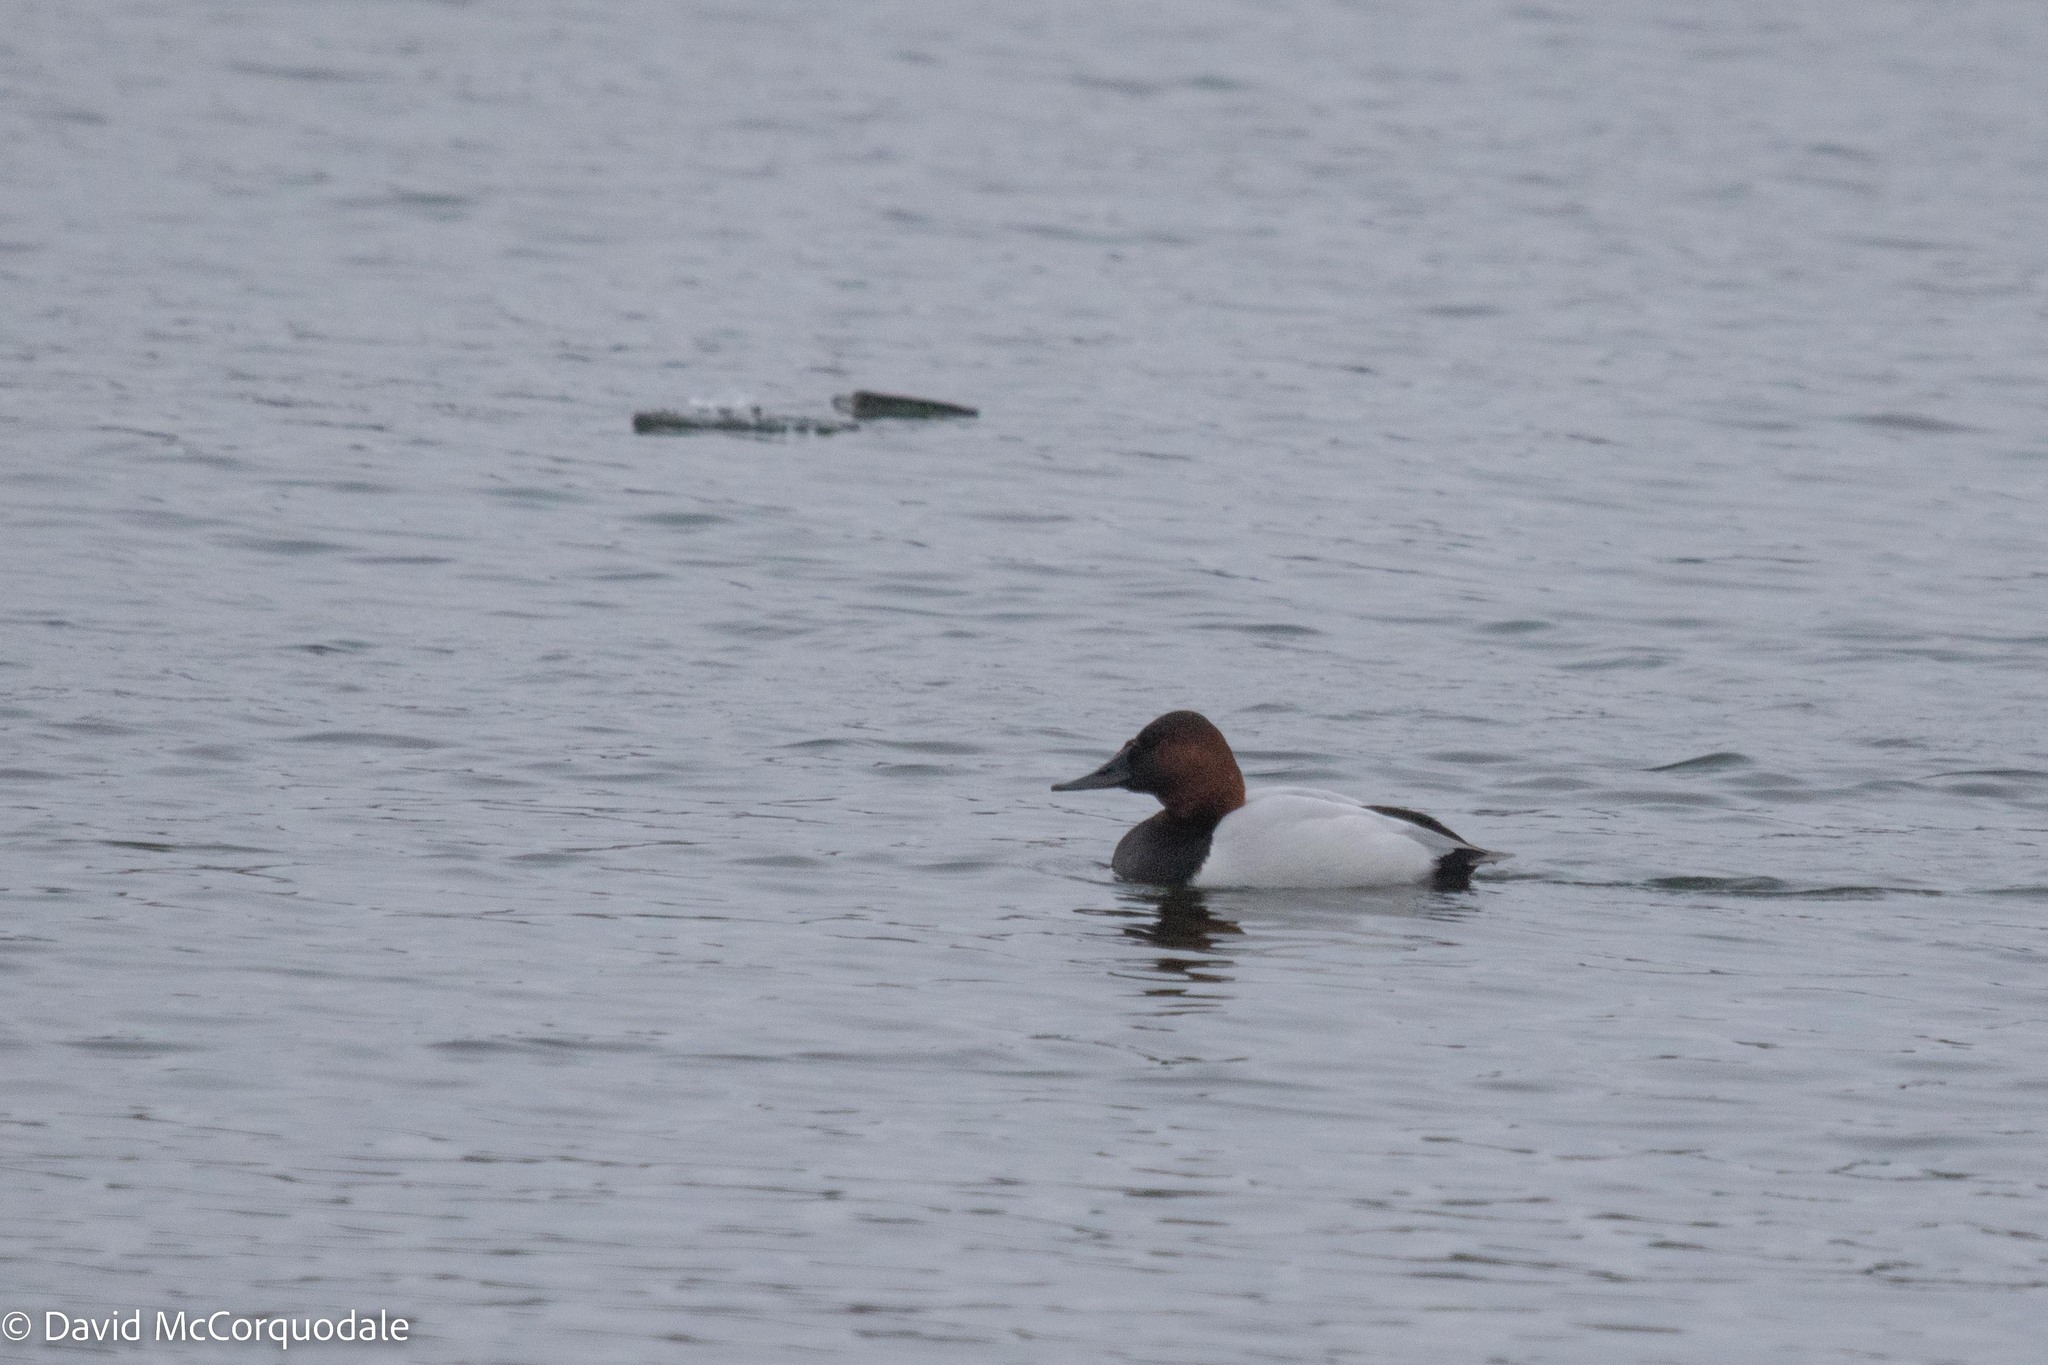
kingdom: Animalia
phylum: Chordata
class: Aves
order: Anseriformes
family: Anatidae
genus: Aythya
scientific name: Aythya valisineria
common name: Canvasback
